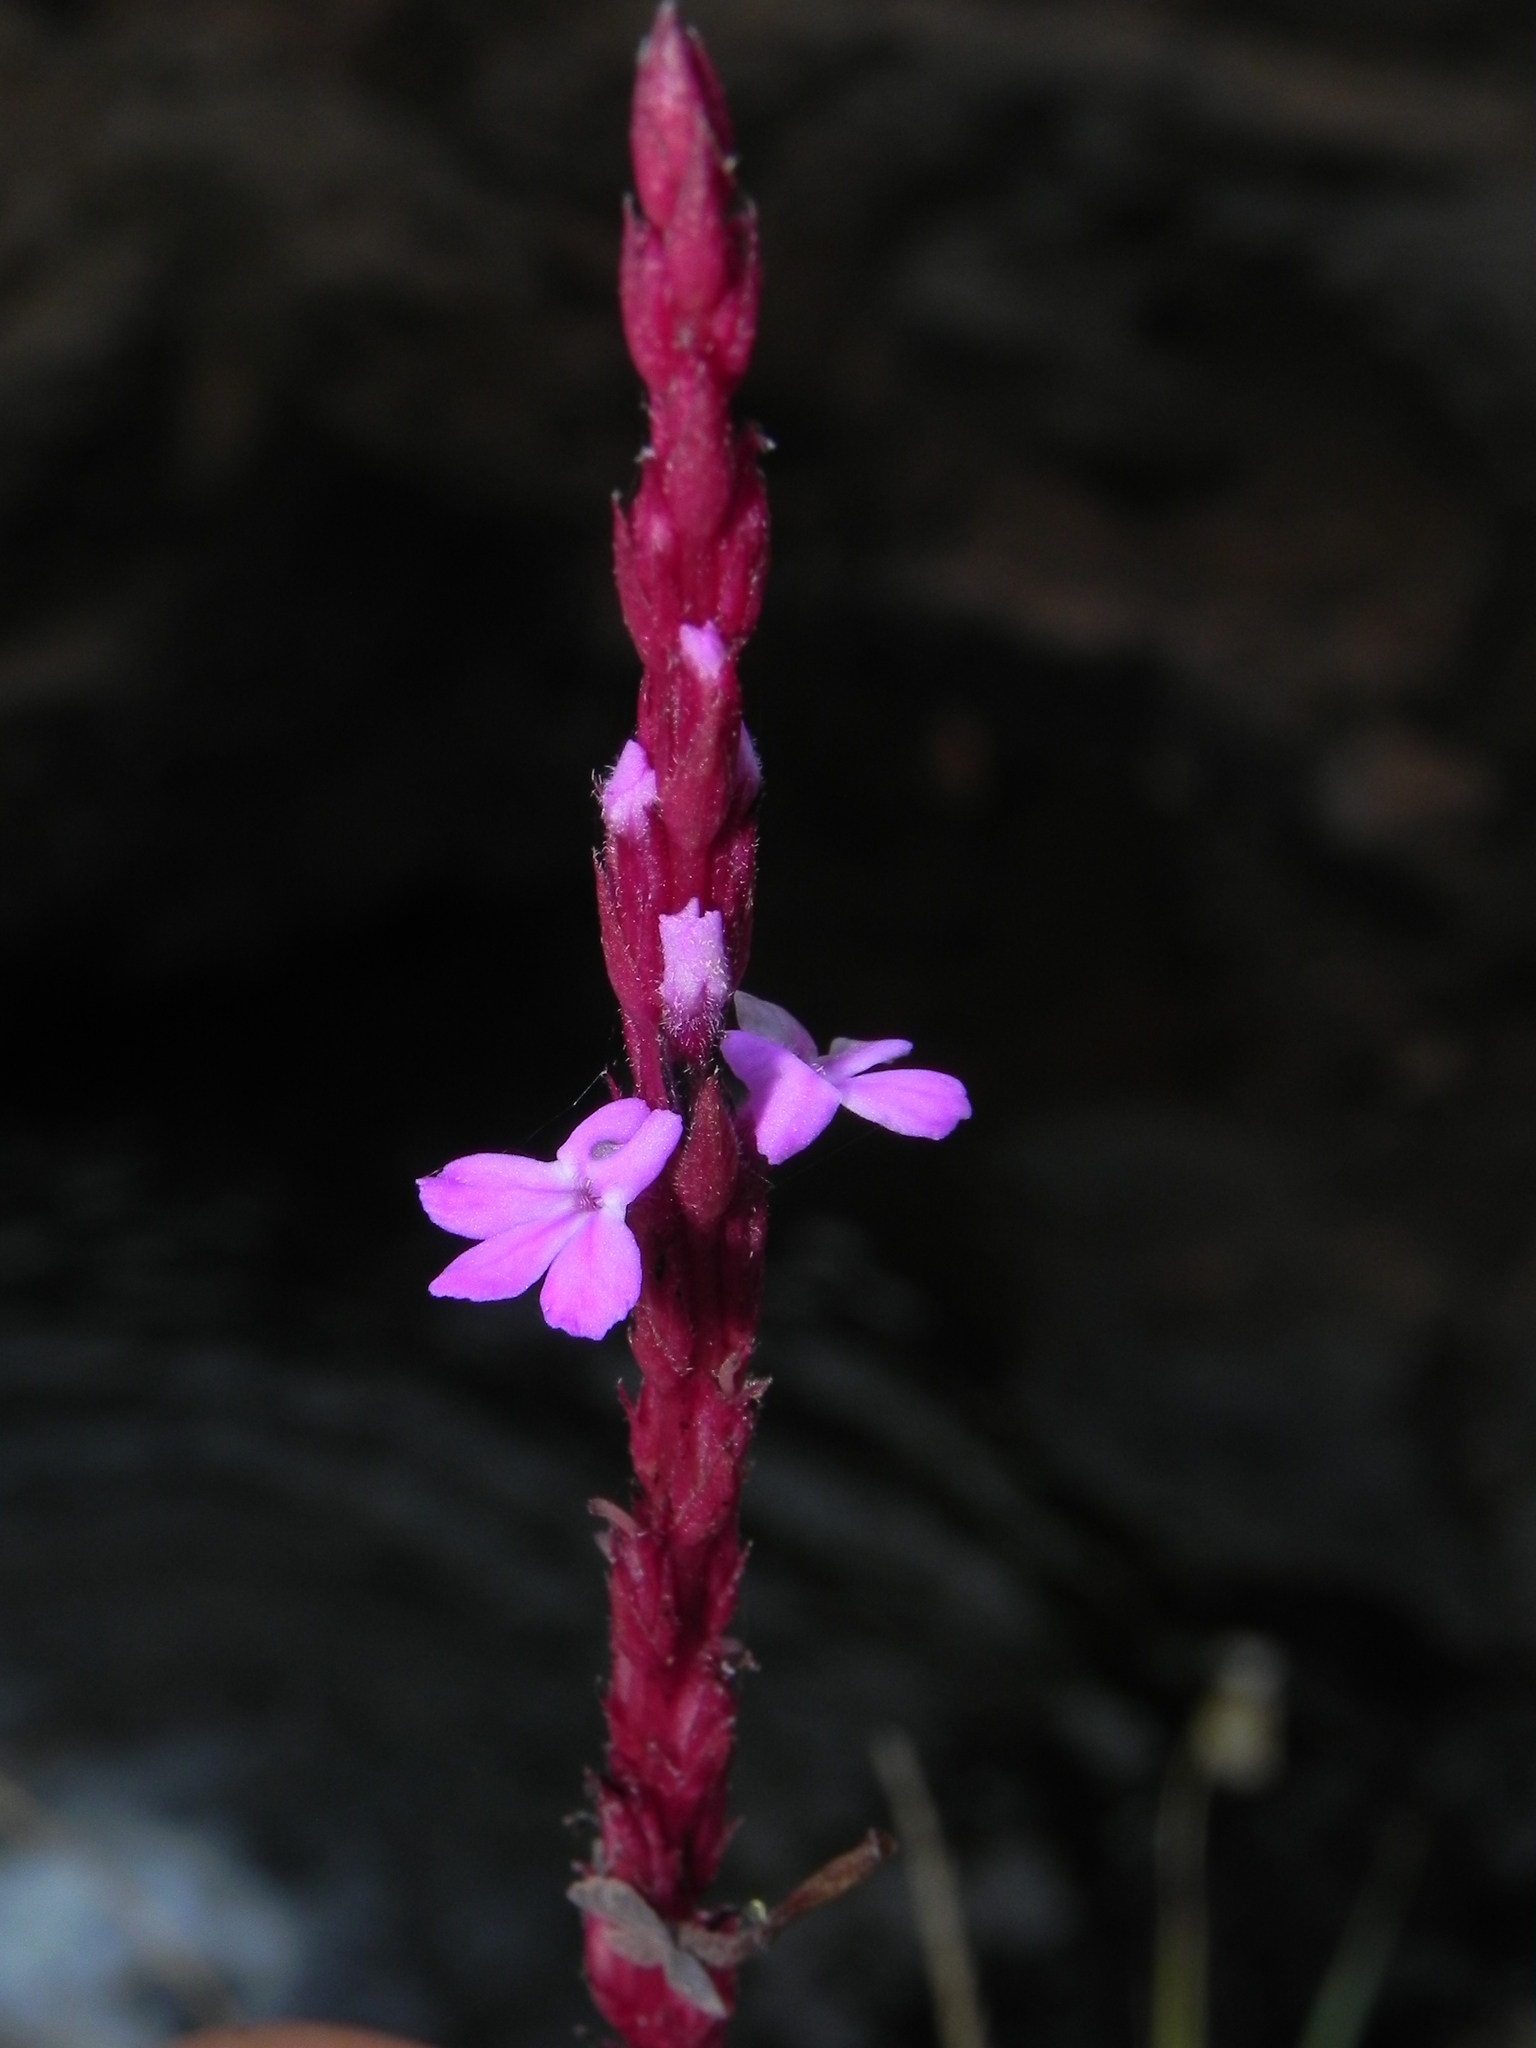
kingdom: Plantae
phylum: Tracheophyta
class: Magnoliopsida
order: Lamiales
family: Orobanchaceae
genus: Striga
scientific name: Striga gesnerioides
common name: Cowpea witchweed
